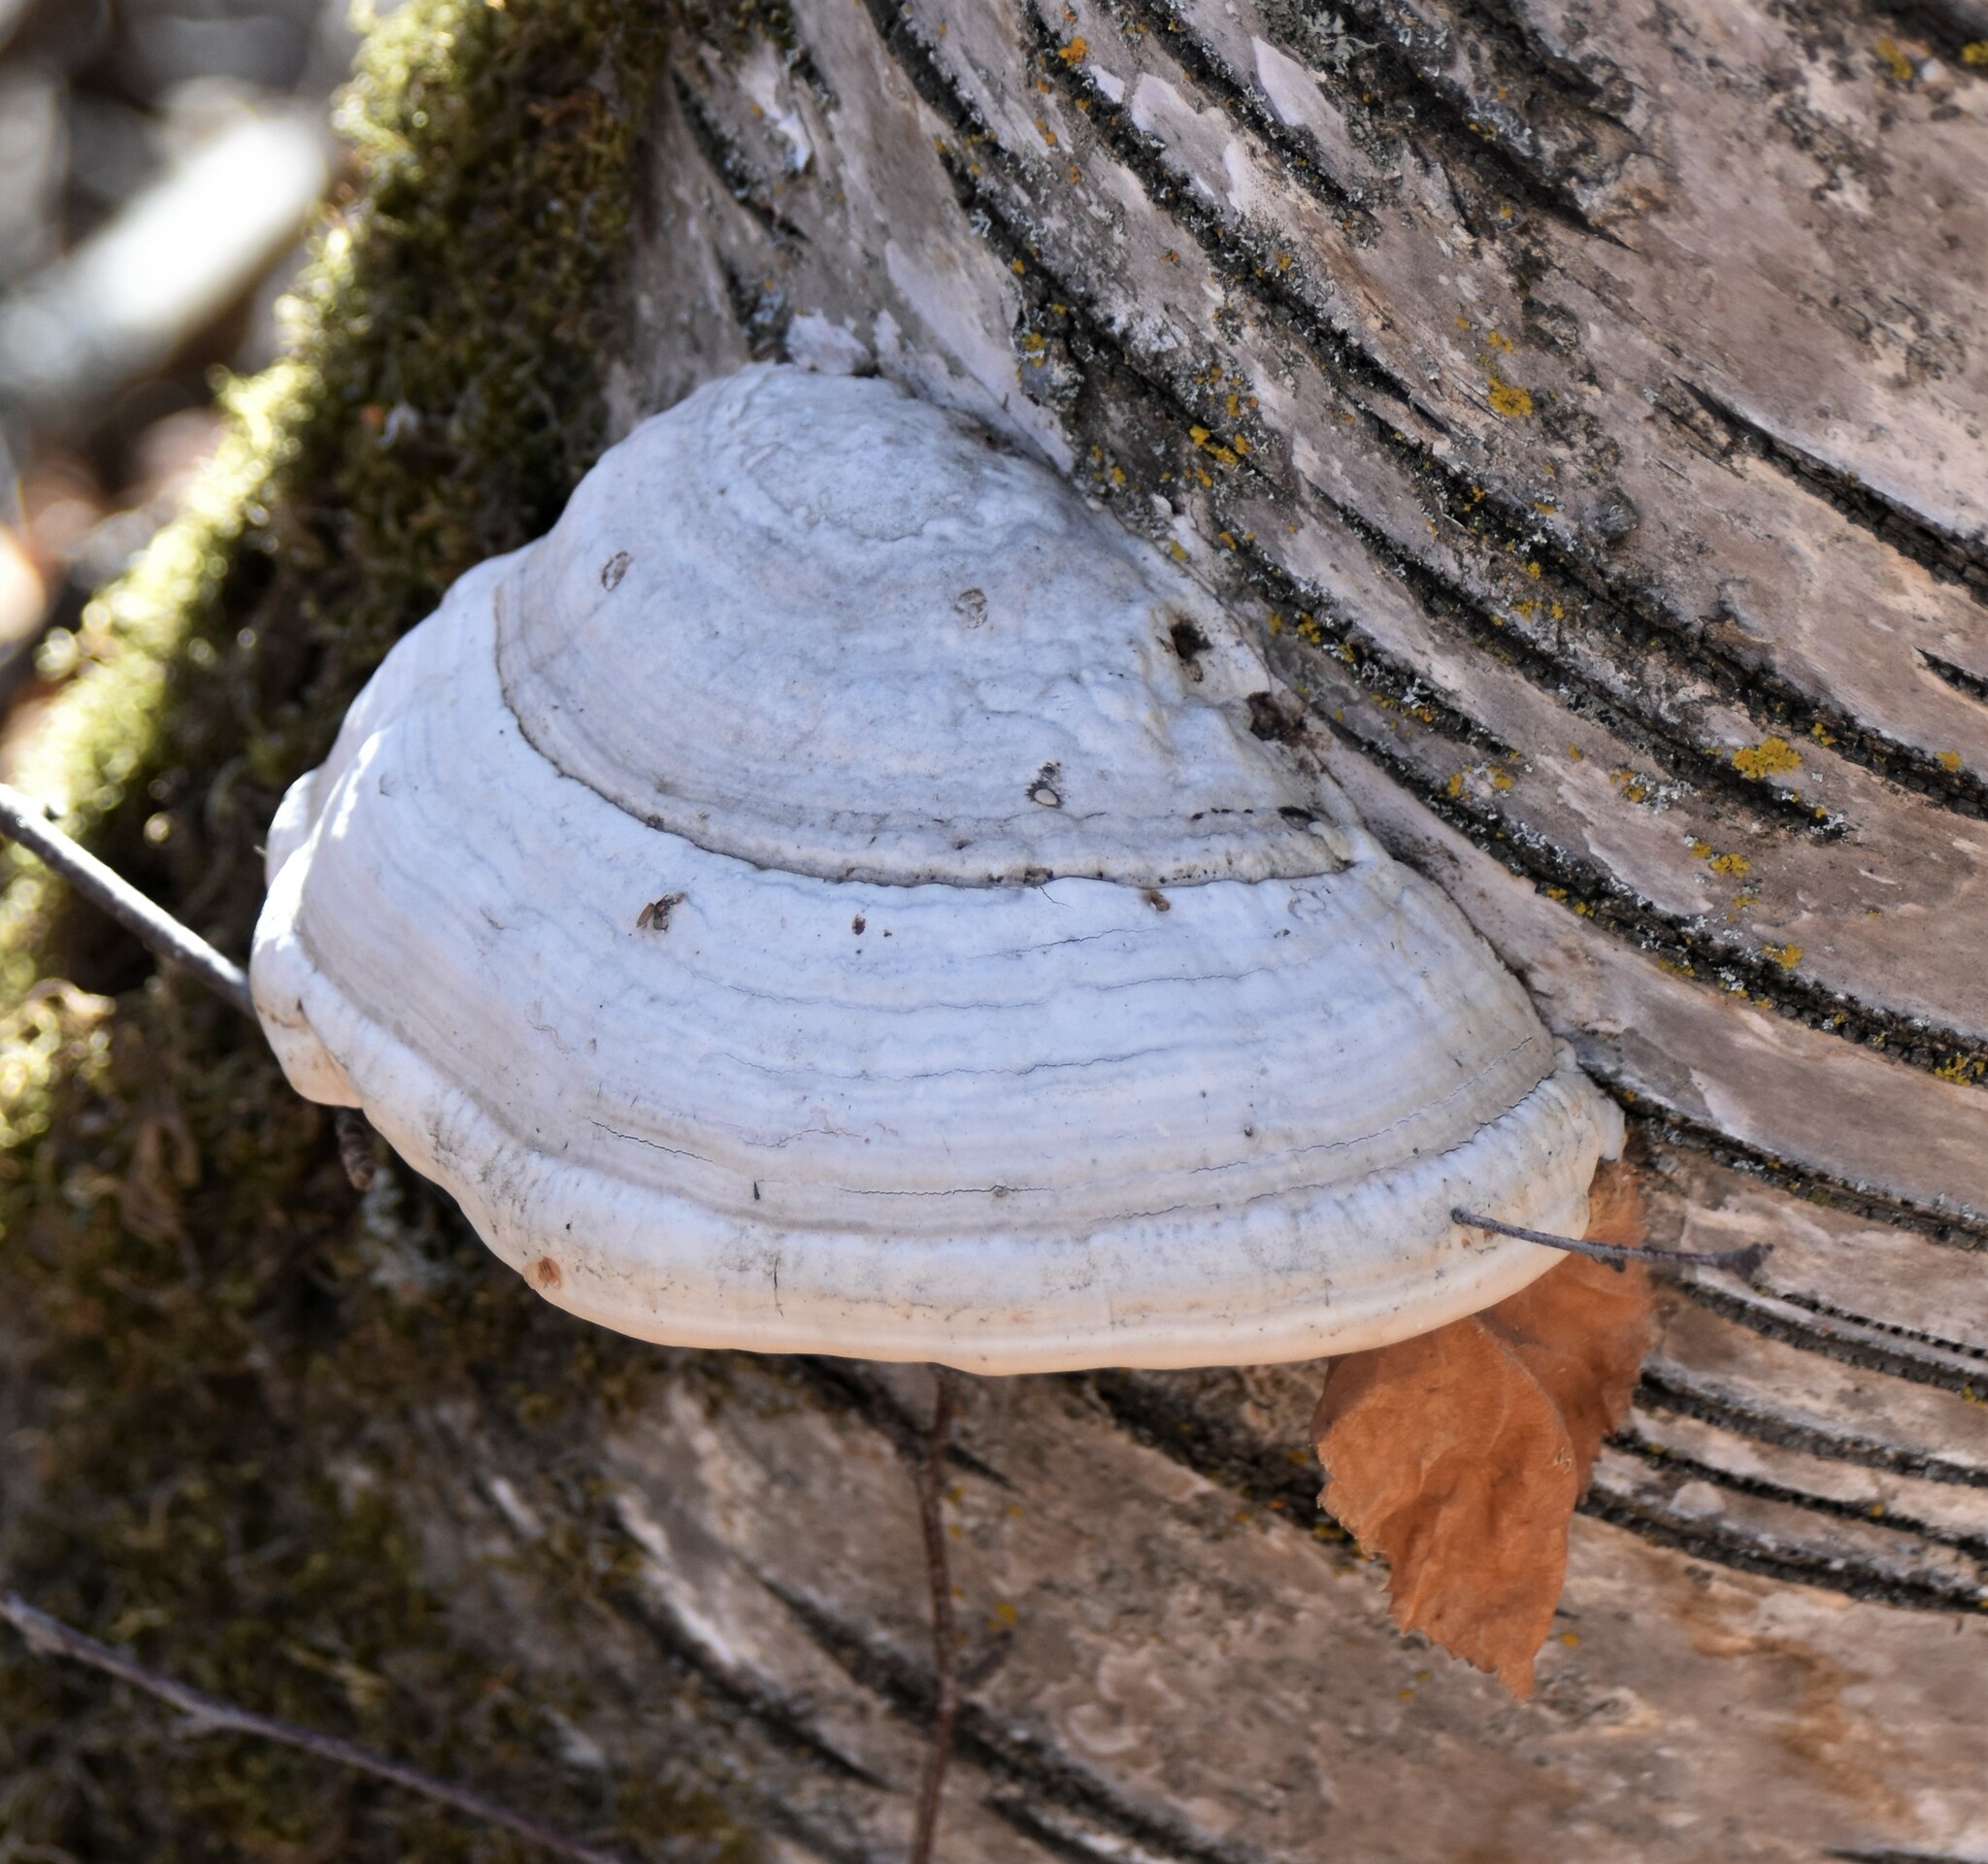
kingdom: Fungi
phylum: Basidiomycota
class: Agaricomycetes
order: Polyporales
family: Polyporaceae
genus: Fomes
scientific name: Fomes fomentarius
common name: Hoof fungus
